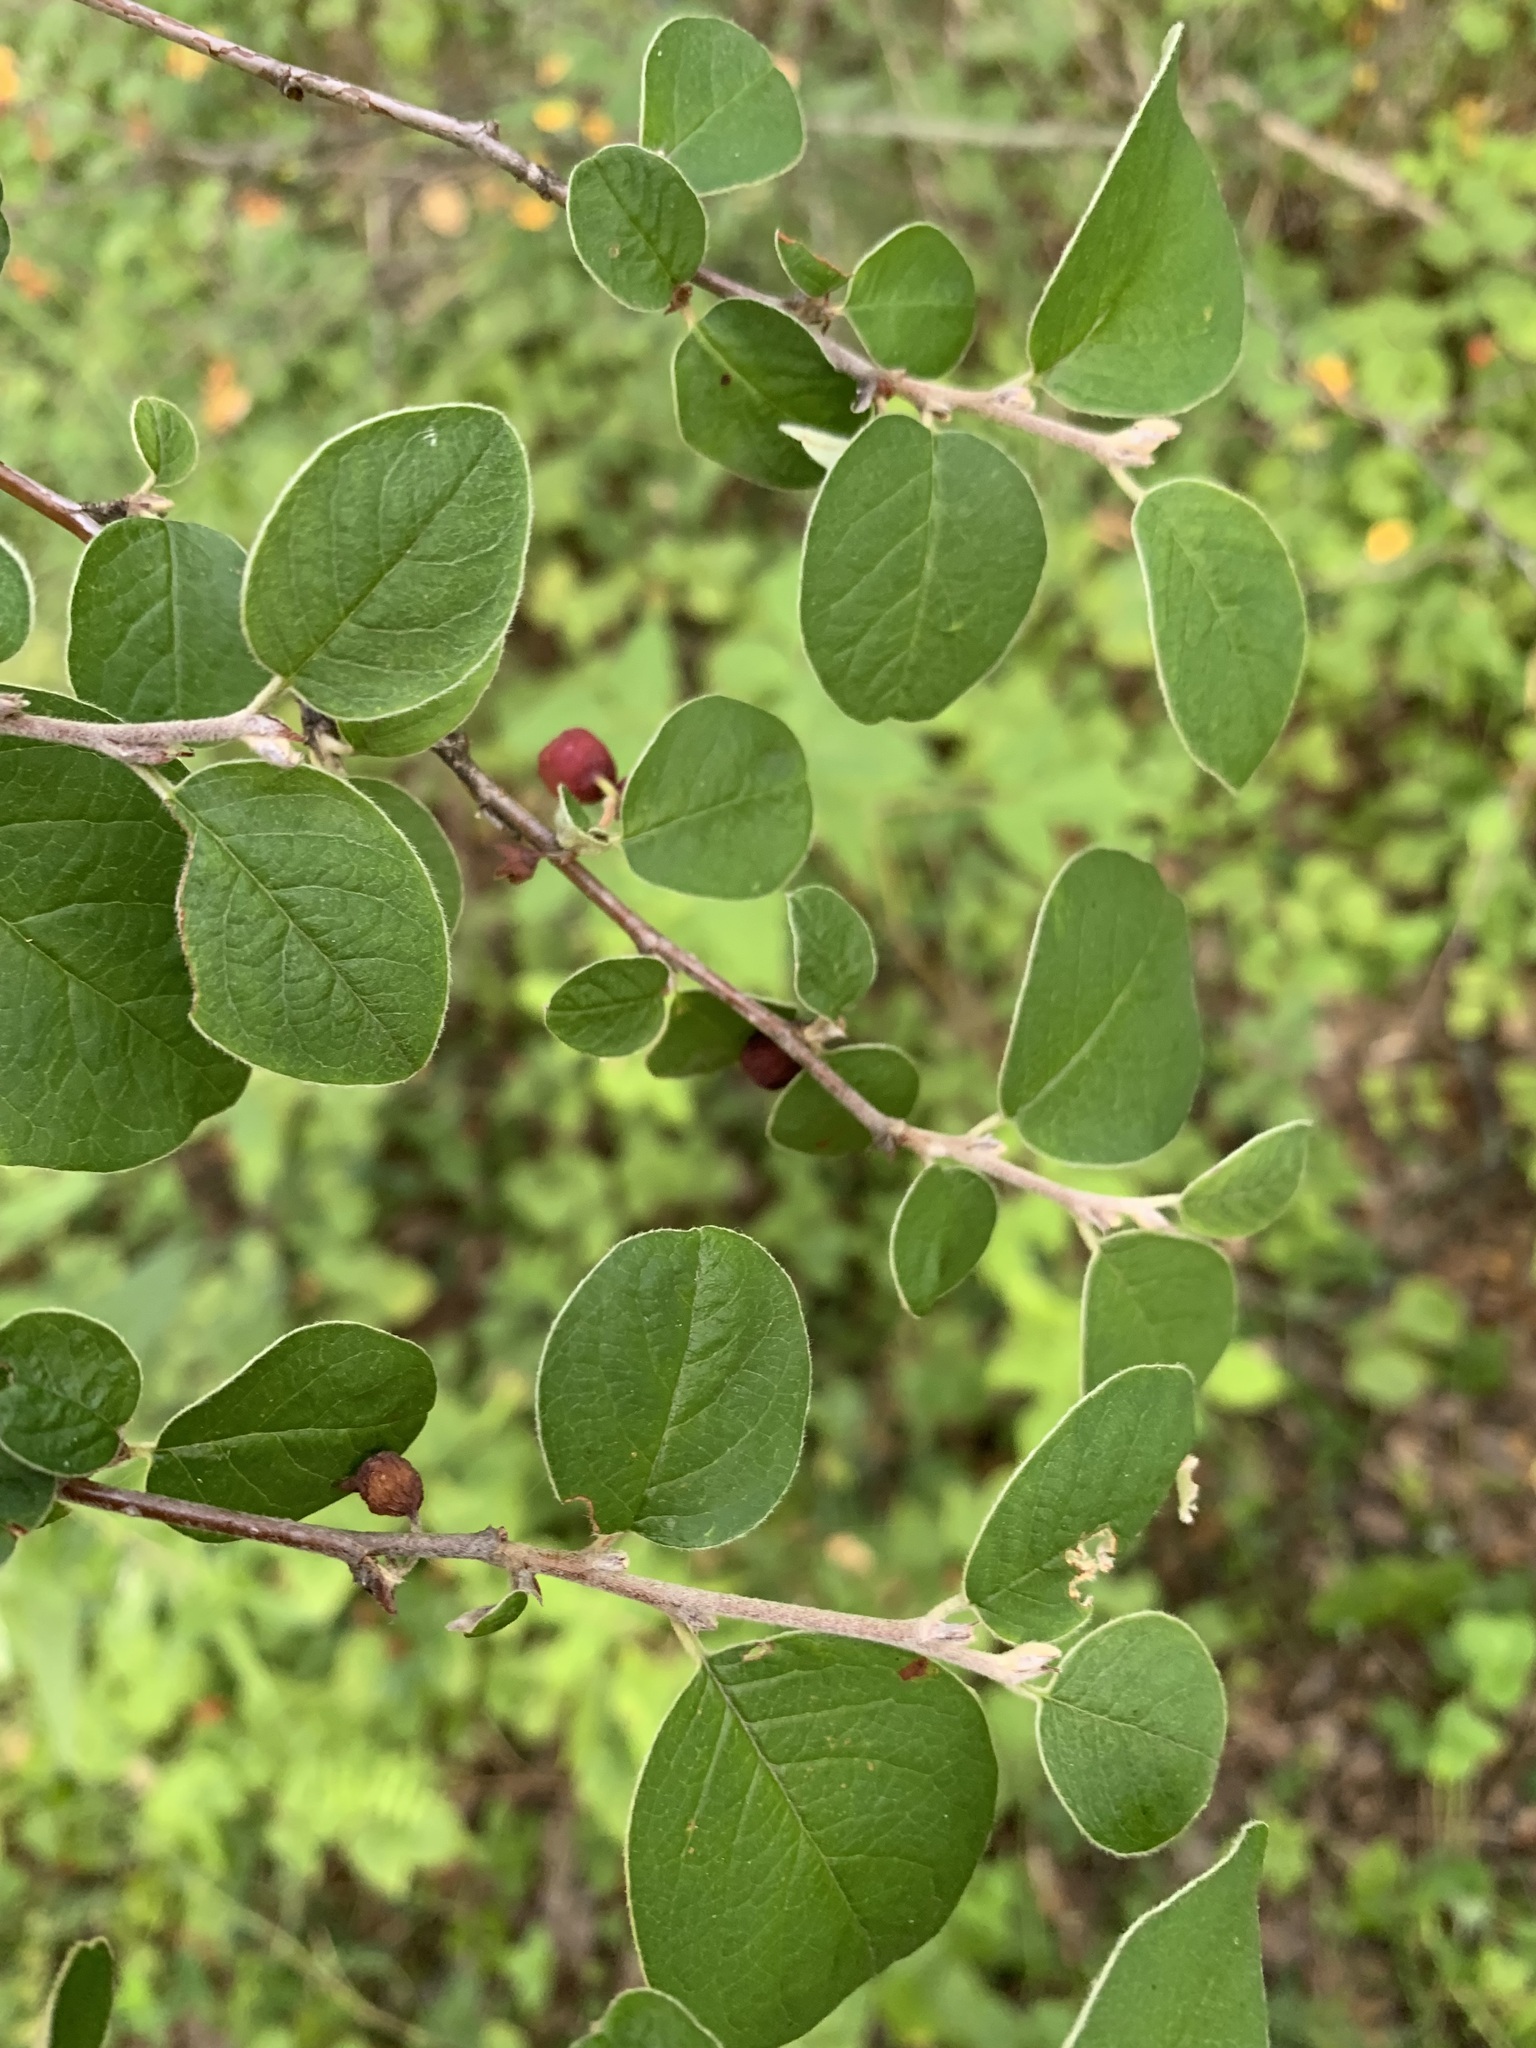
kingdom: Plantae
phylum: Tracheophyta
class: Magnoliopsida
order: Rosales
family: Rosaceae
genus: Cotoneaster
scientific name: Cotoneaster melanocarpus
